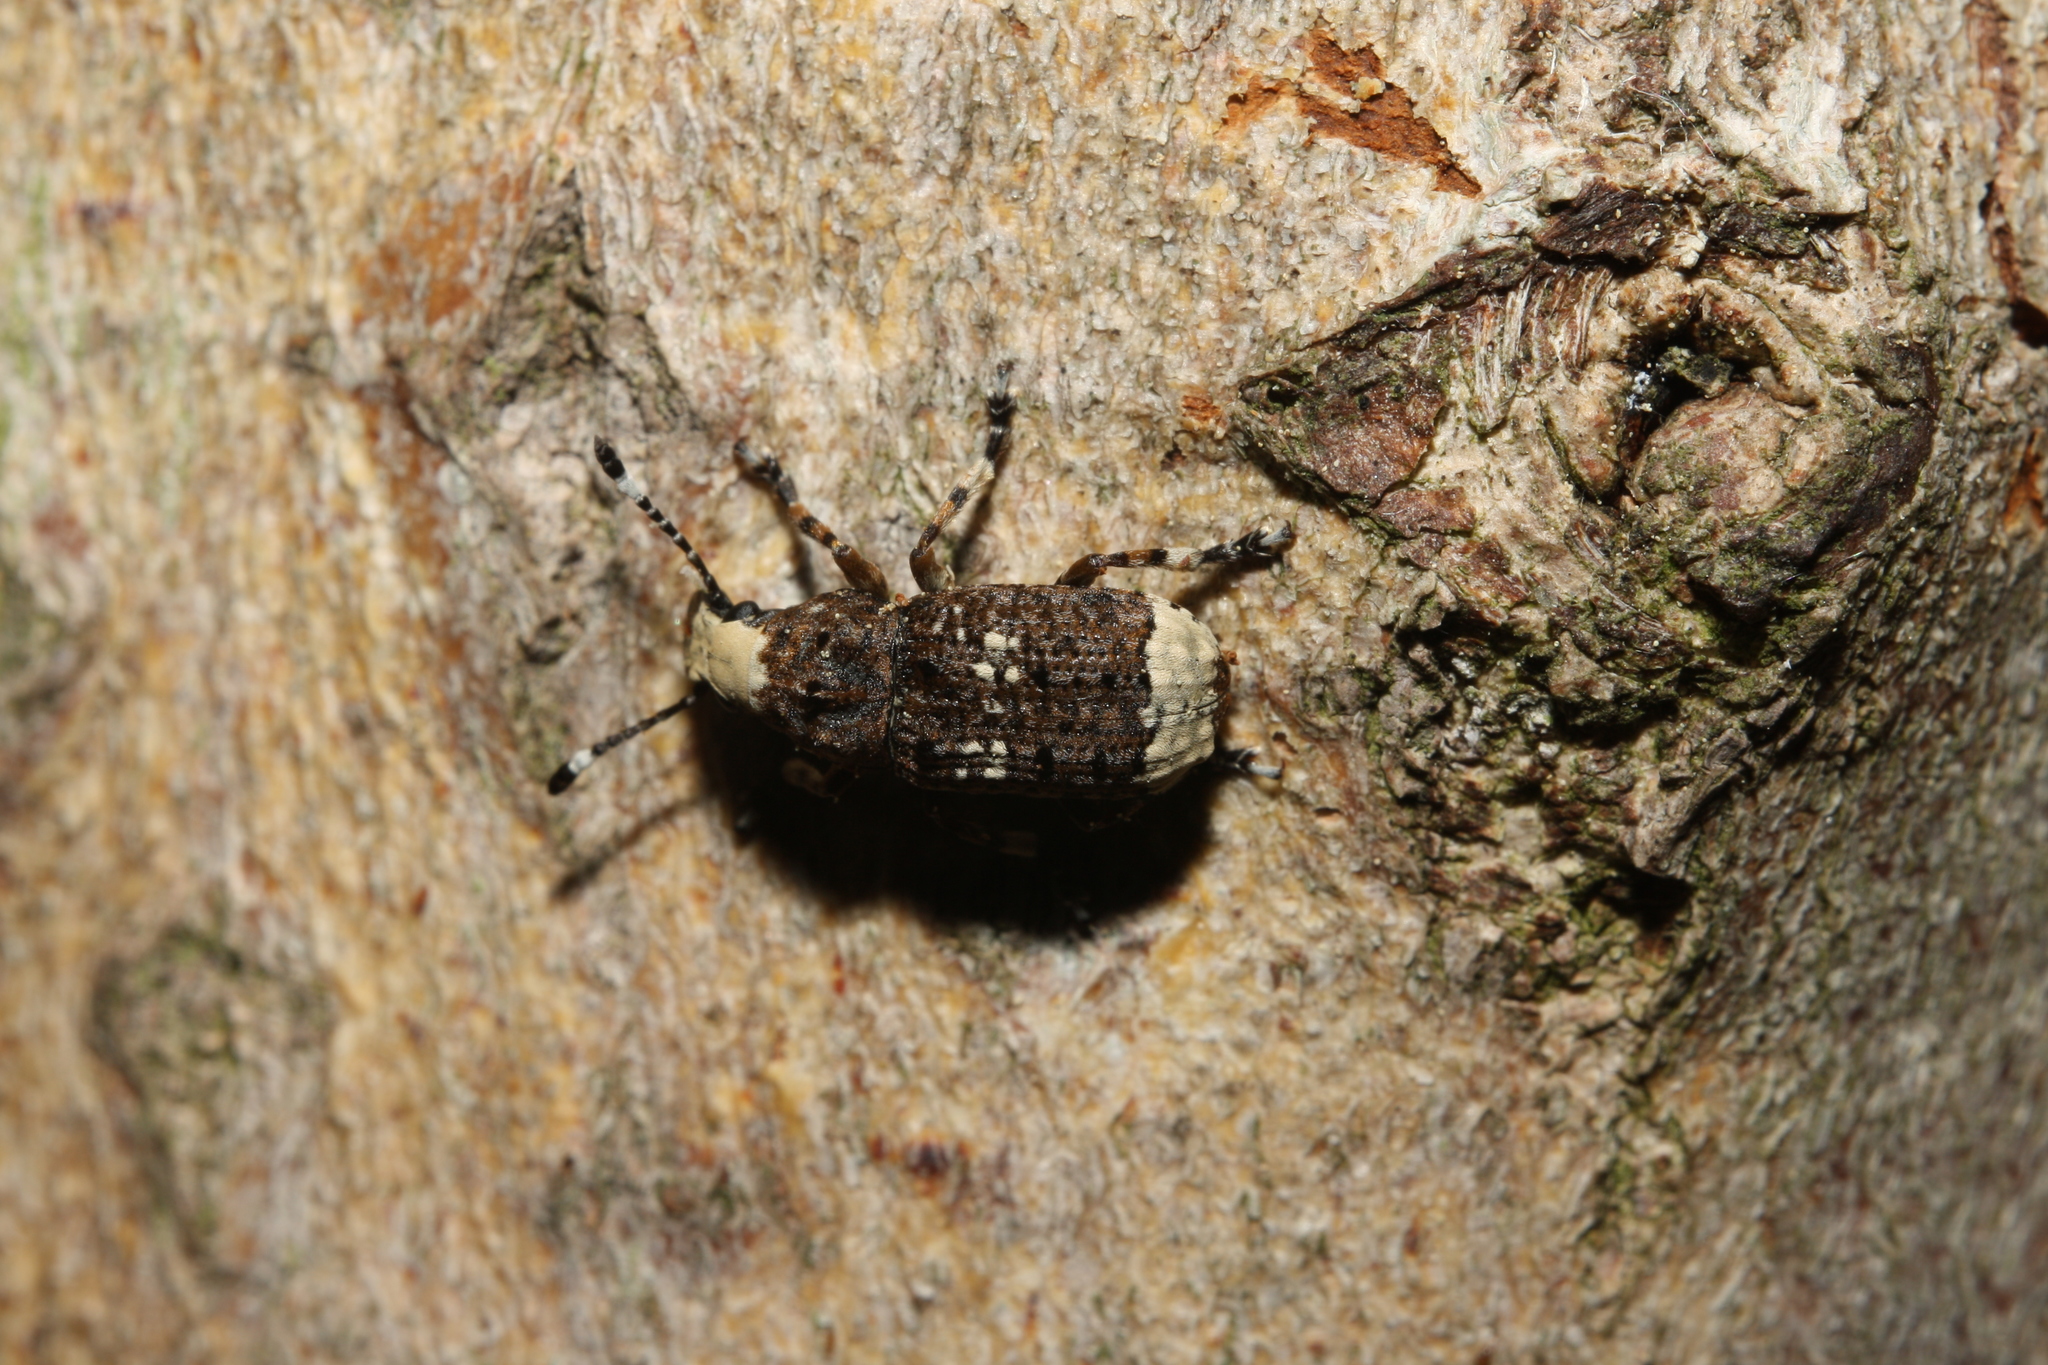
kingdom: Animalia
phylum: Arthropoda
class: Insecta
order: Coleoptera
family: Anthribidae
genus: Platystomos
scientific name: Platystomos albinus
